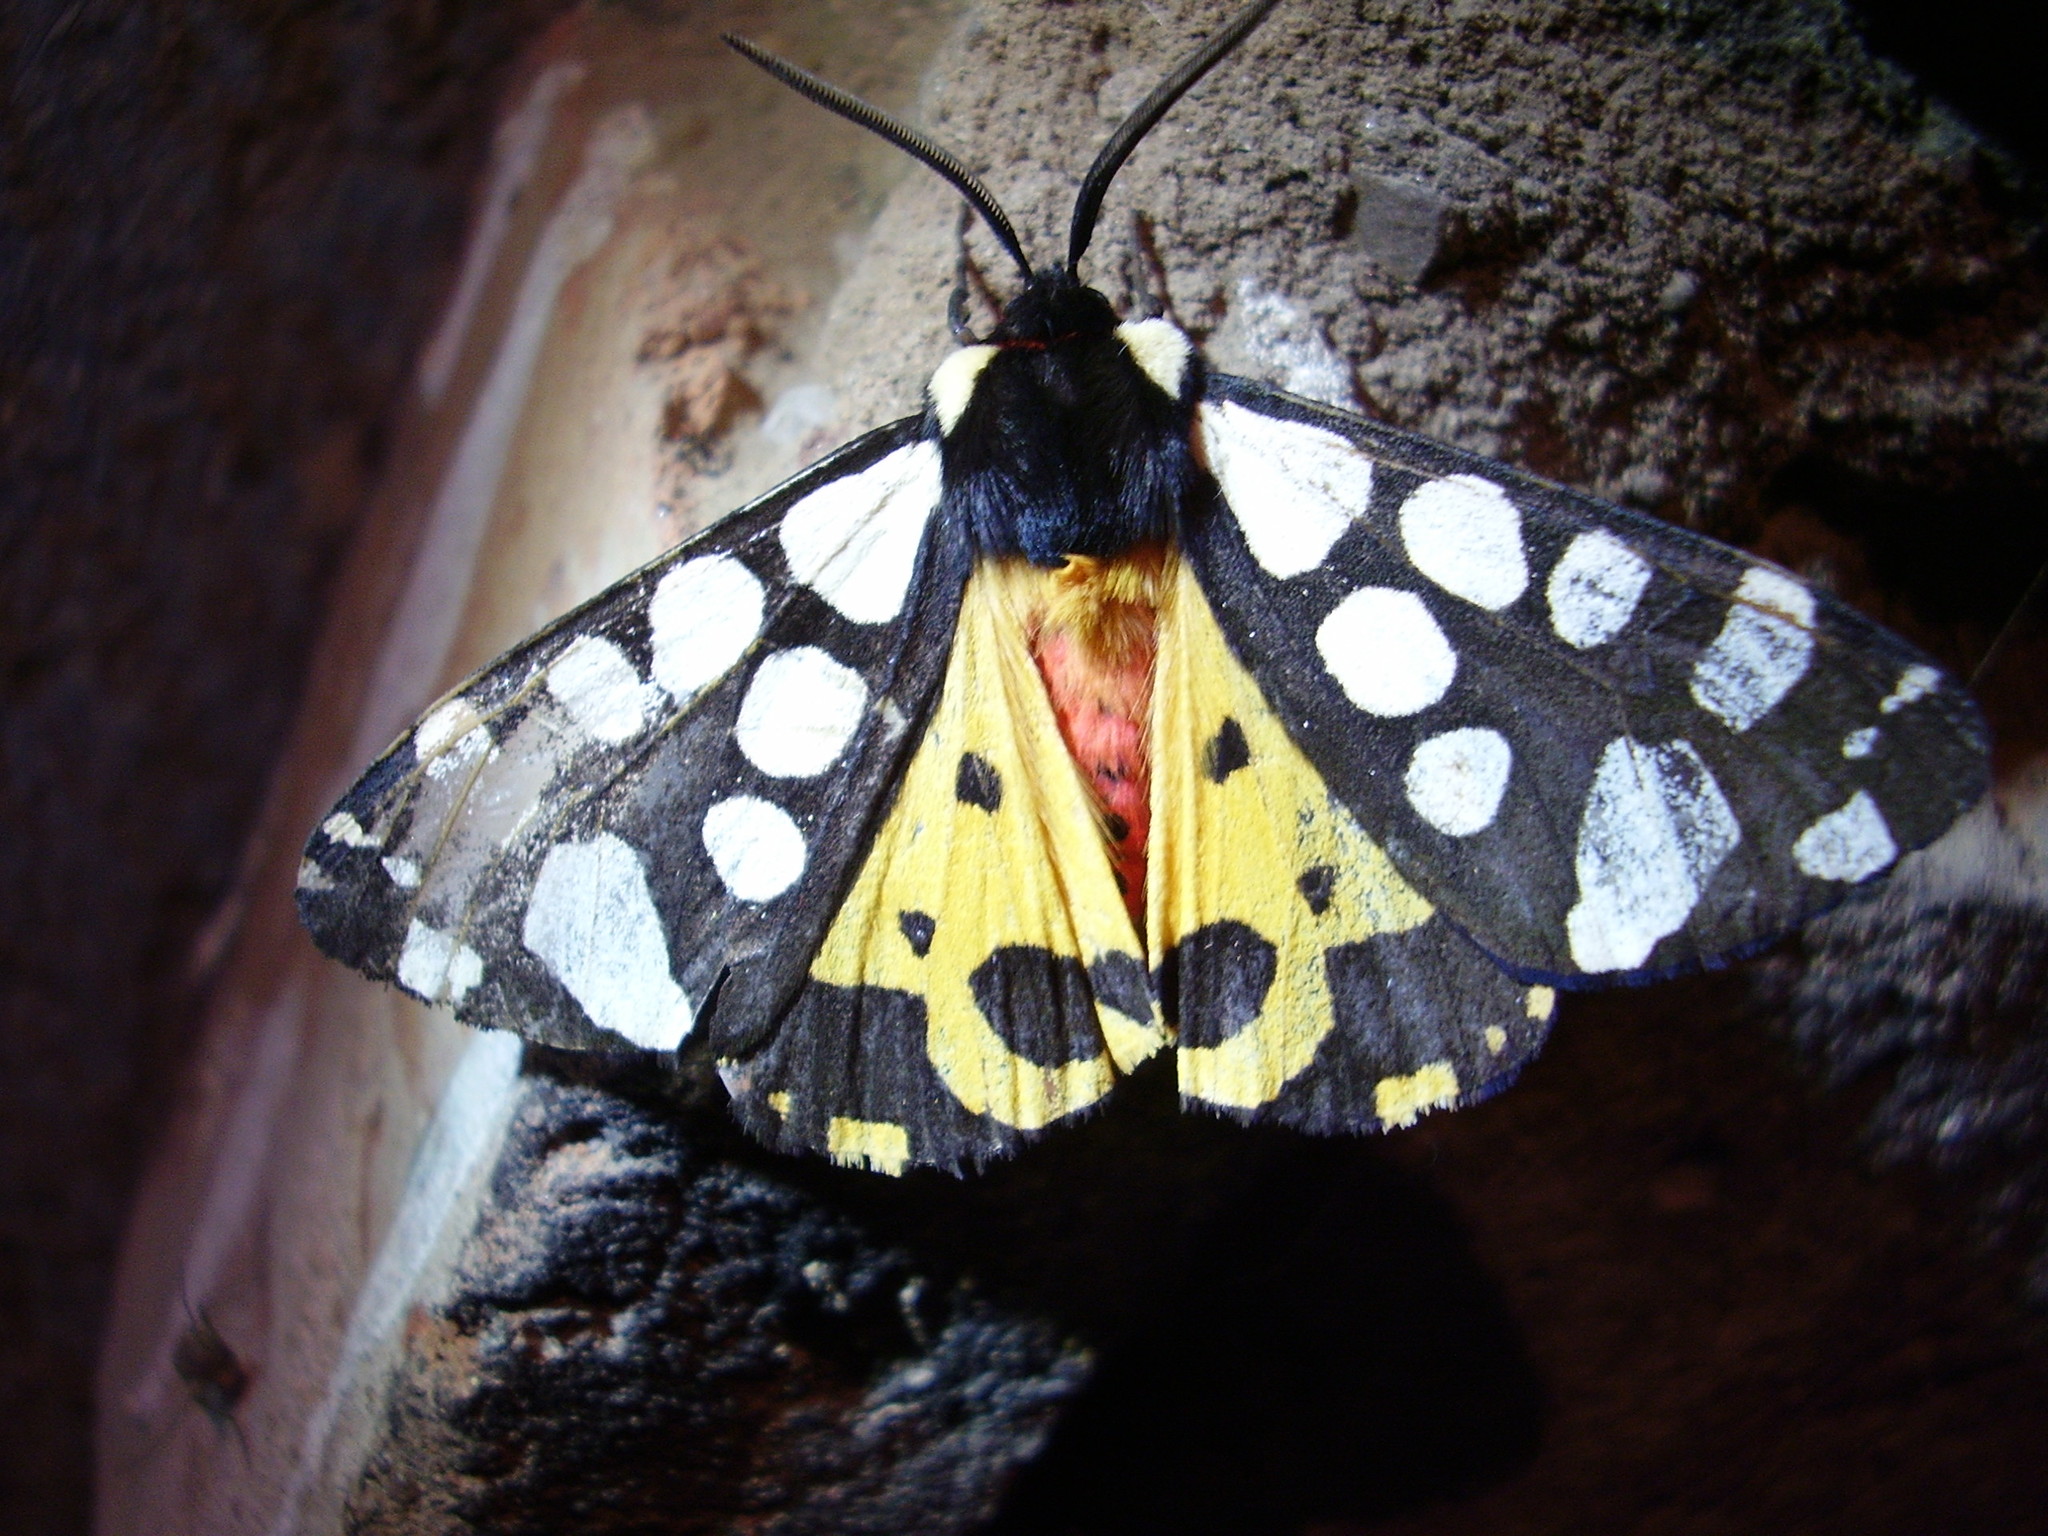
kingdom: Animalia
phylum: Arthropoda
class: Insecta
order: Lepidoptera
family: Erebidae
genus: Epicallia
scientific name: Epicallia villica
